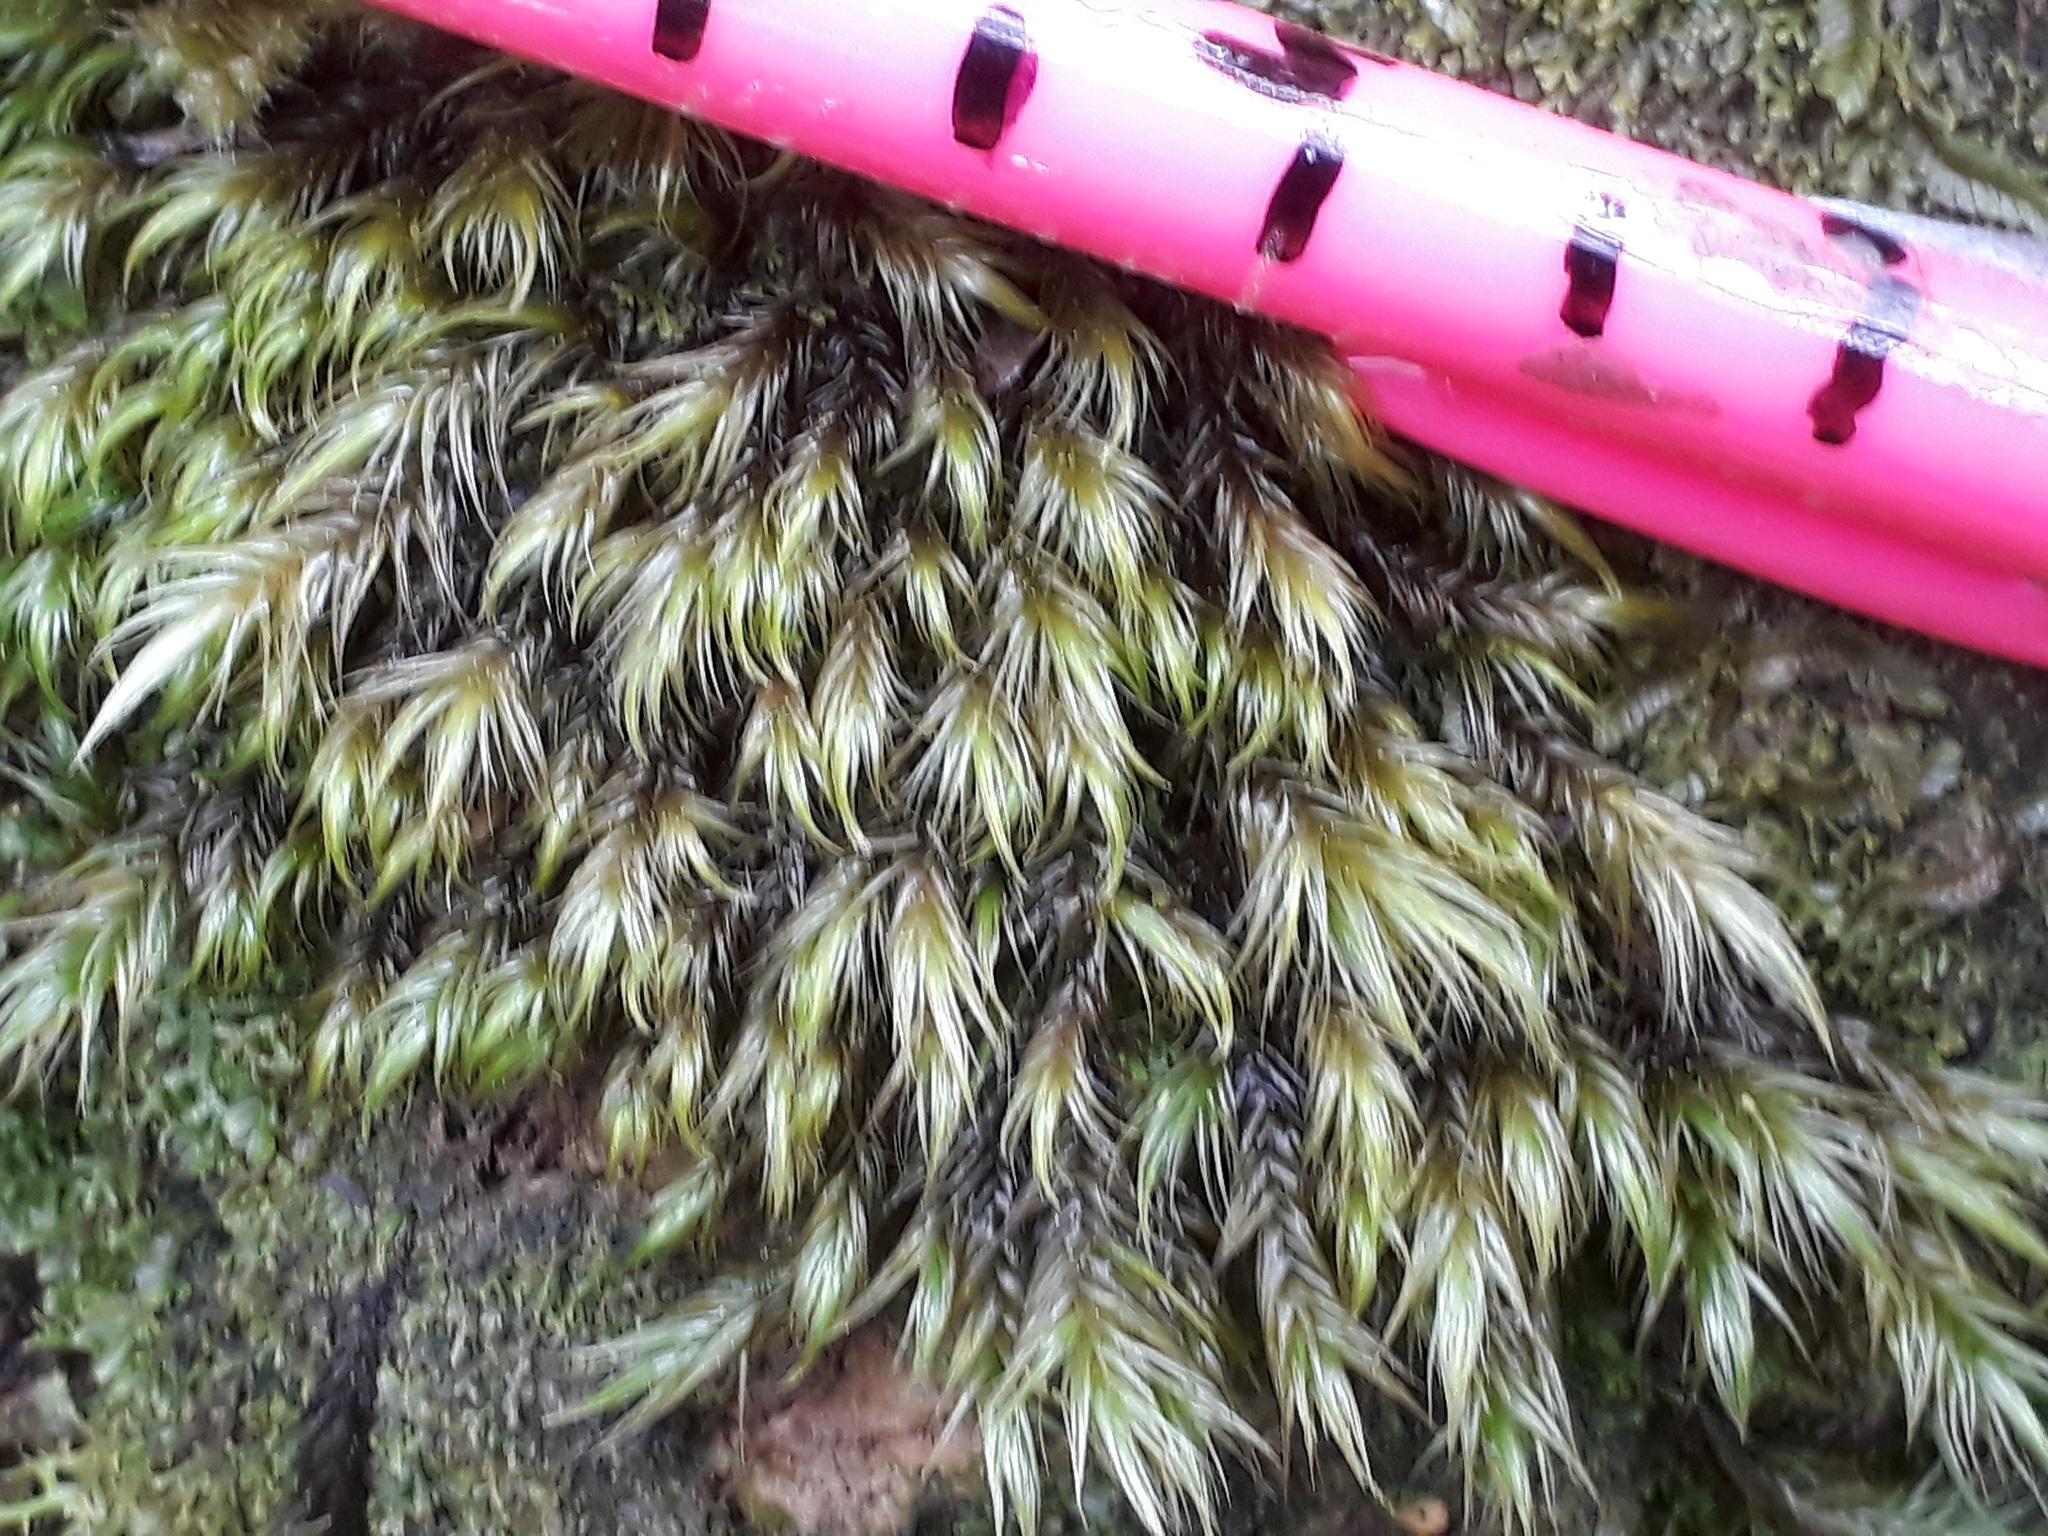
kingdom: Plantae
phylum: Bryophyta
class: Bryopsida
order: Dicranales
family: Leucobryaceae
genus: Leucobryum
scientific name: Leucobryum javense
